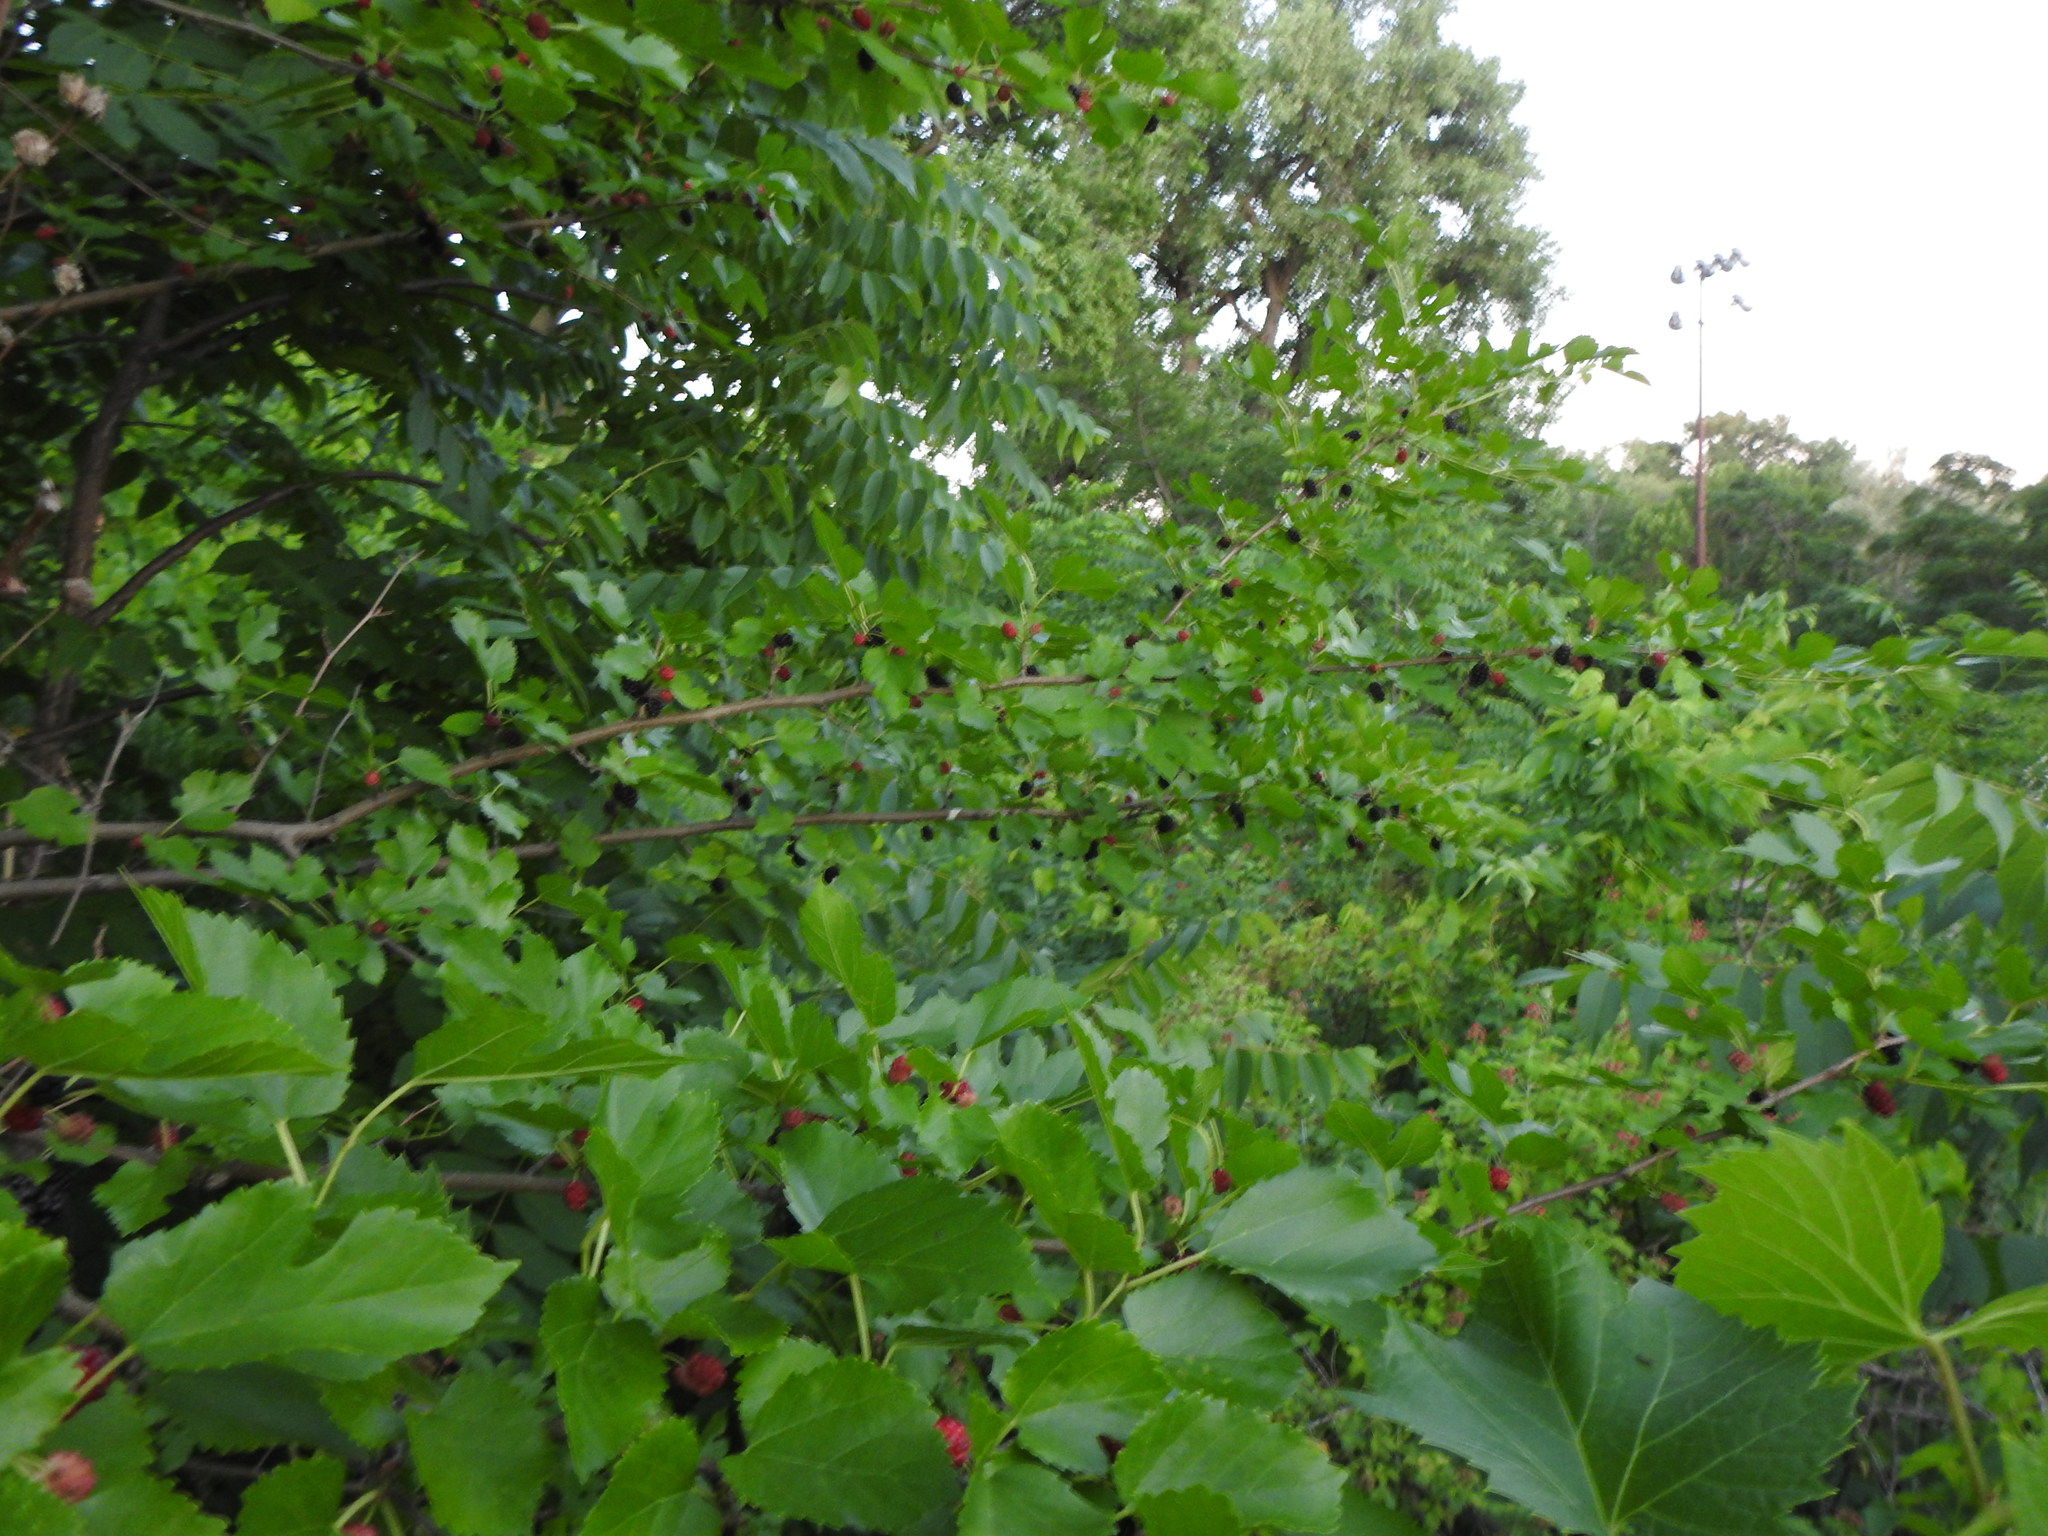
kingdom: Plantae
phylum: Tracheophyta
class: Magnoliopsida
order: Rosales
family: Moraceae
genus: Morus
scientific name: Morus alba
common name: White mulberry
